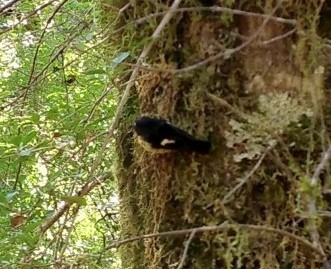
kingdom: Animalia
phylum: Chordata
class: Aves
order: Passeriformes
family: Petroicidae
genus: Petroica
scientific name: Petroica macrocephala
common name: Tomtit
